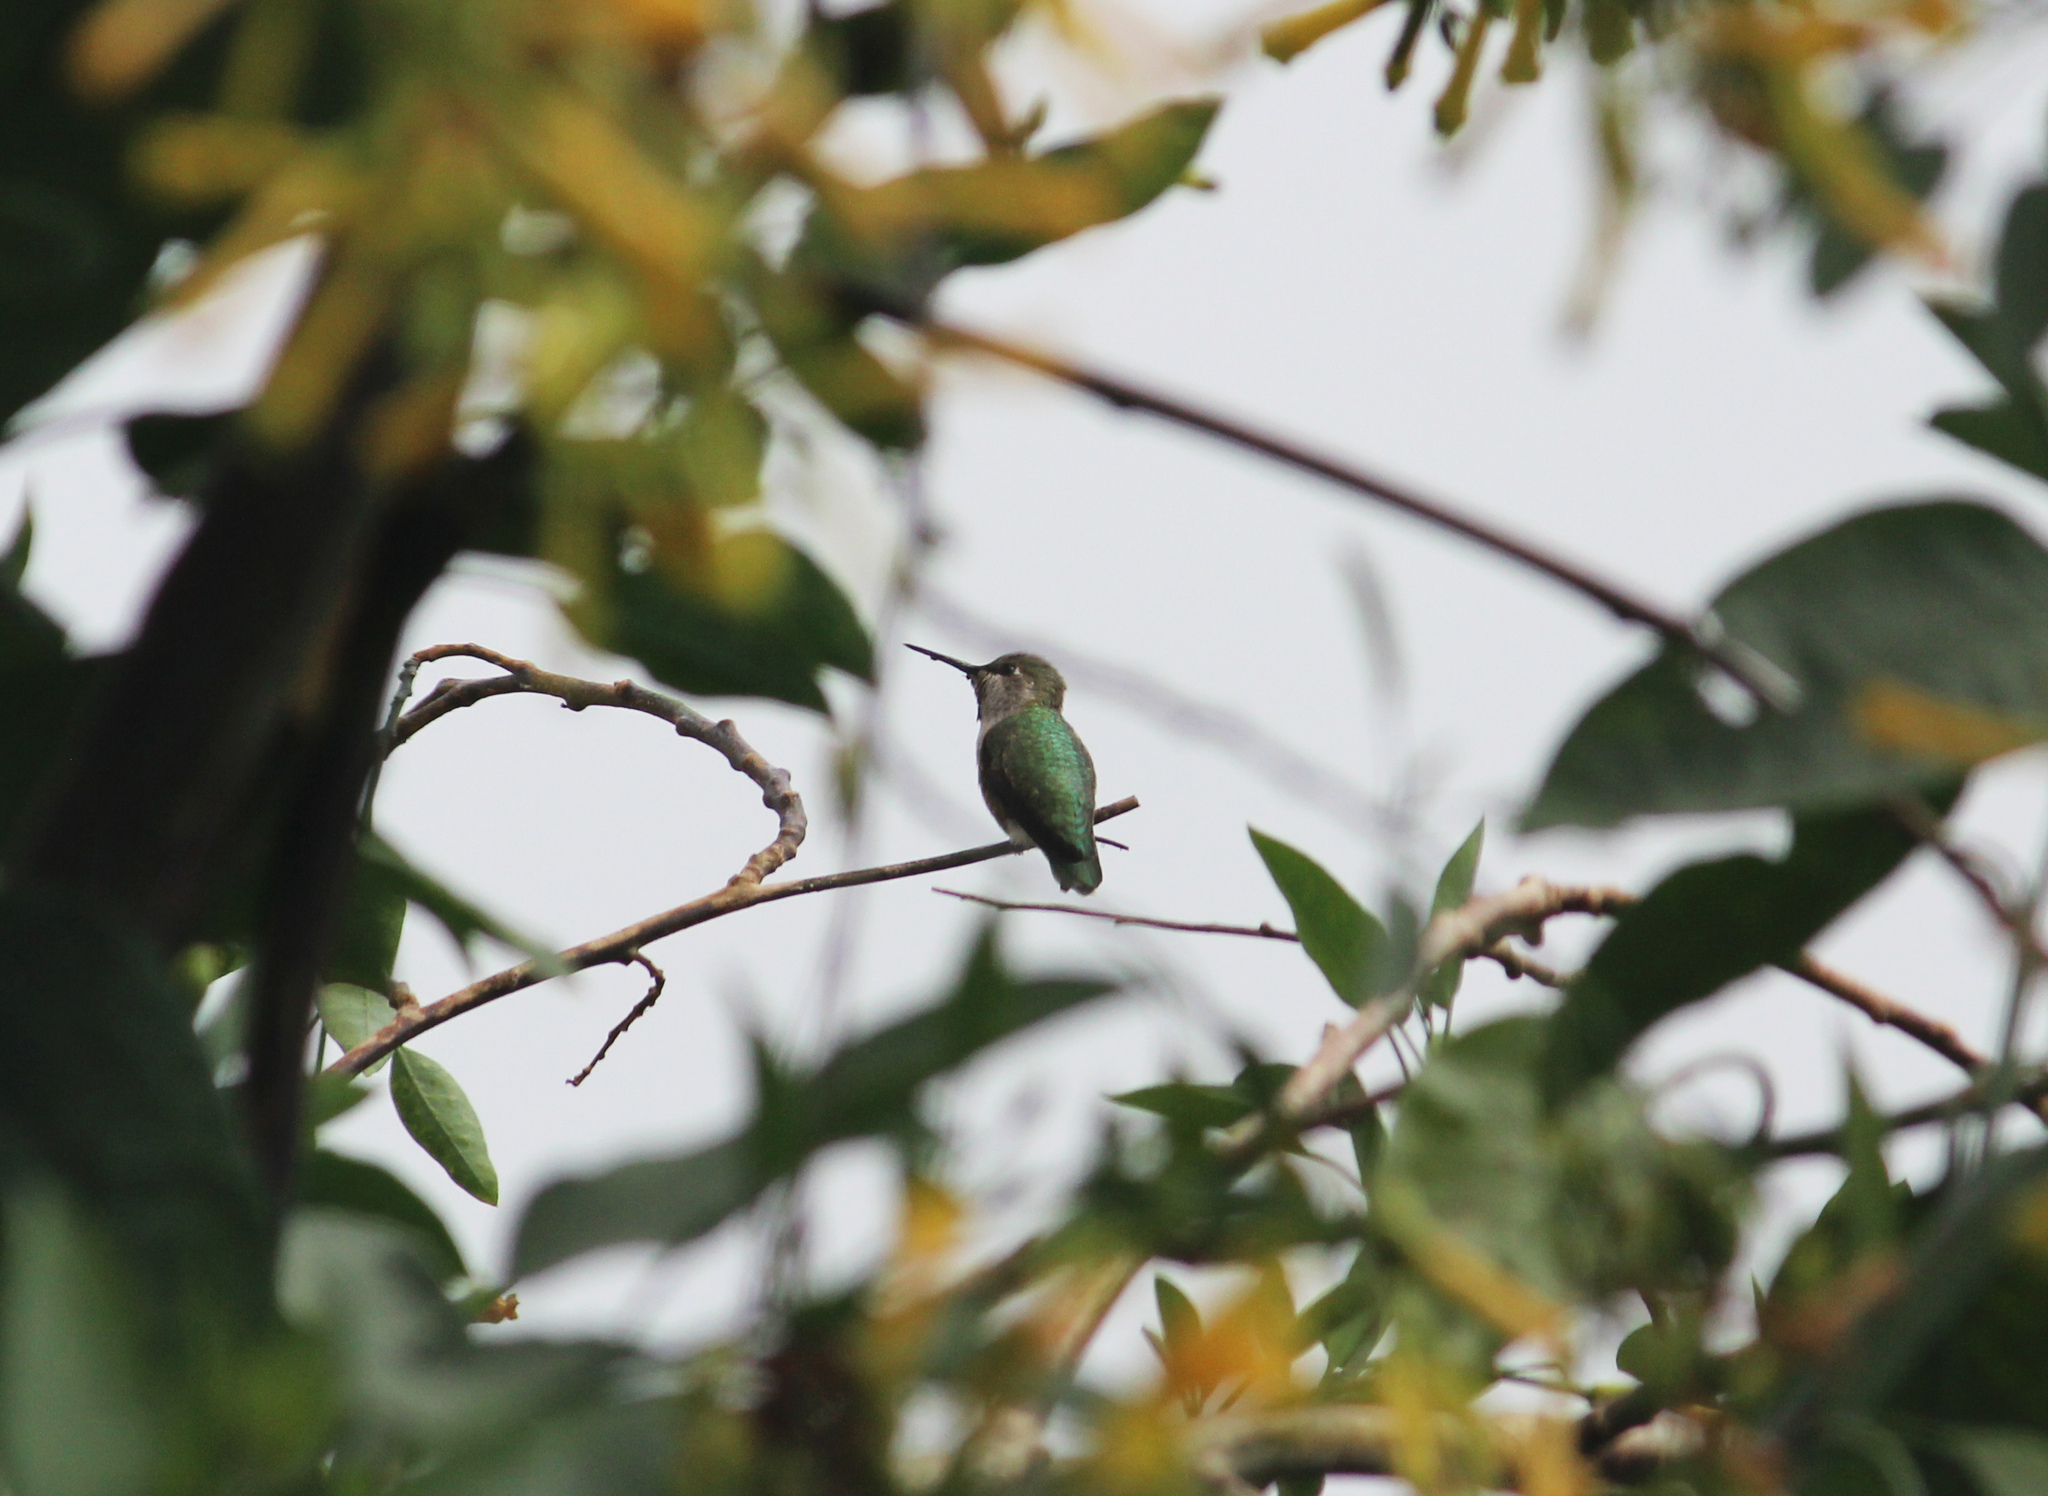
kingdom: Animalia
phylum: Chordata
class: Aves
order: Apodiformes
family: Trochilidae
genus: Calypte
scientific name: Calypte anna
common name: Anna's hummingbird
